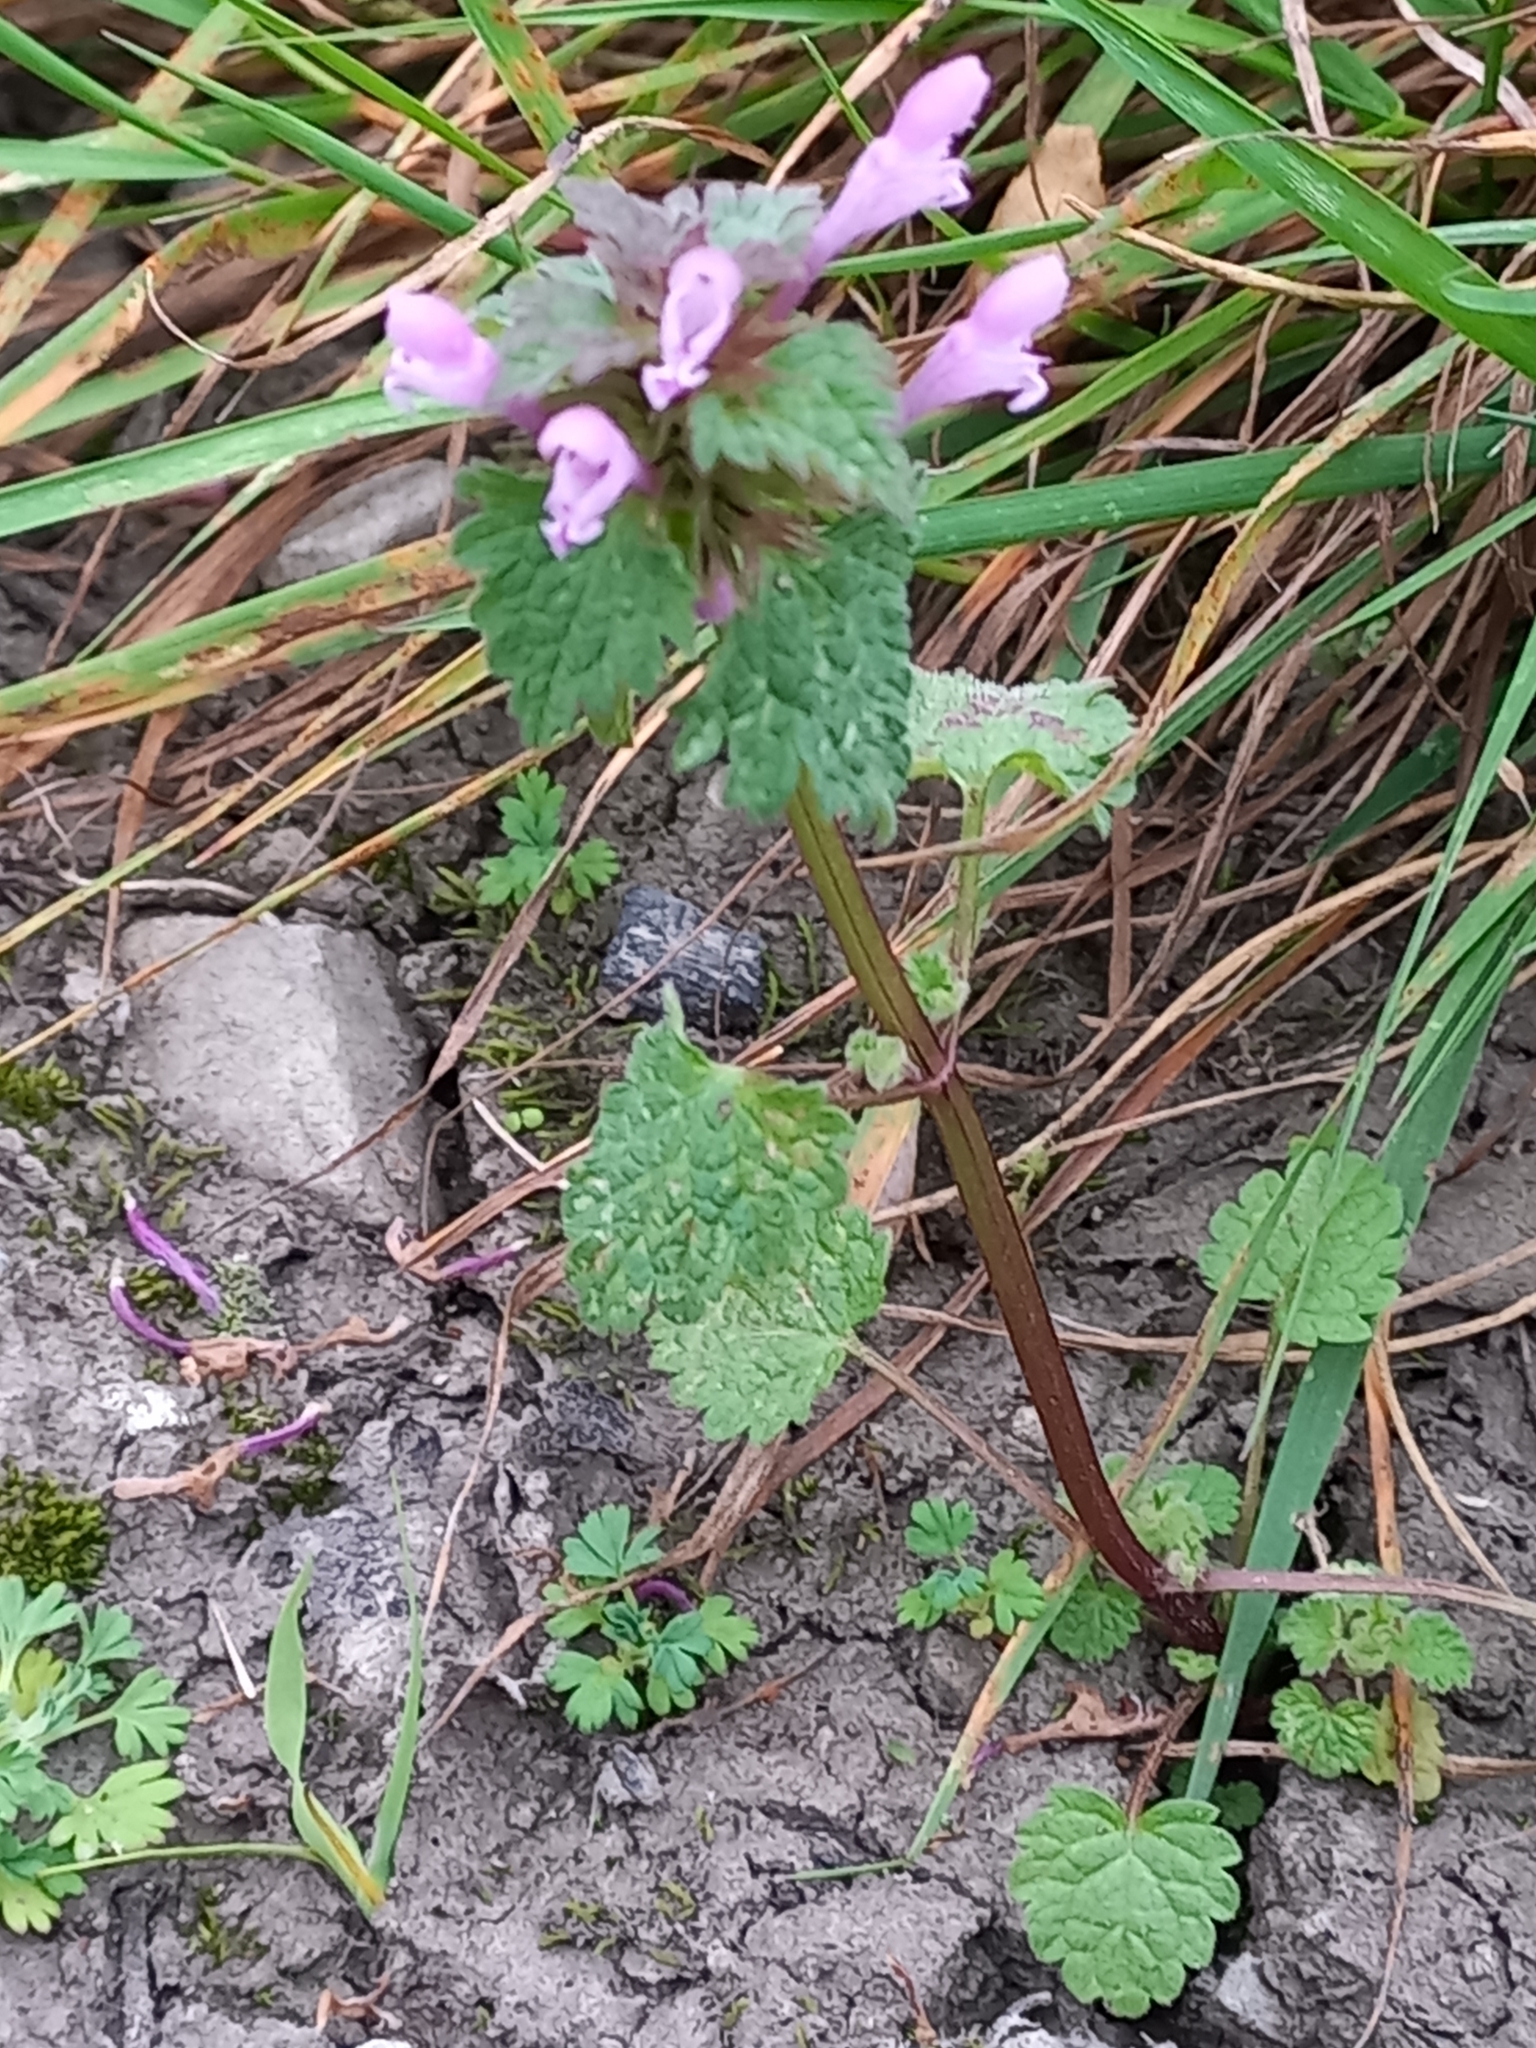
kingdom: Plantae
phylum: Tracheophyta
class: Magnoliopsida
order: Lamiales
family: Lamiaceae
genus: Lamium
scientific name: Lamium purpureum
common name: Red dead-nettle
